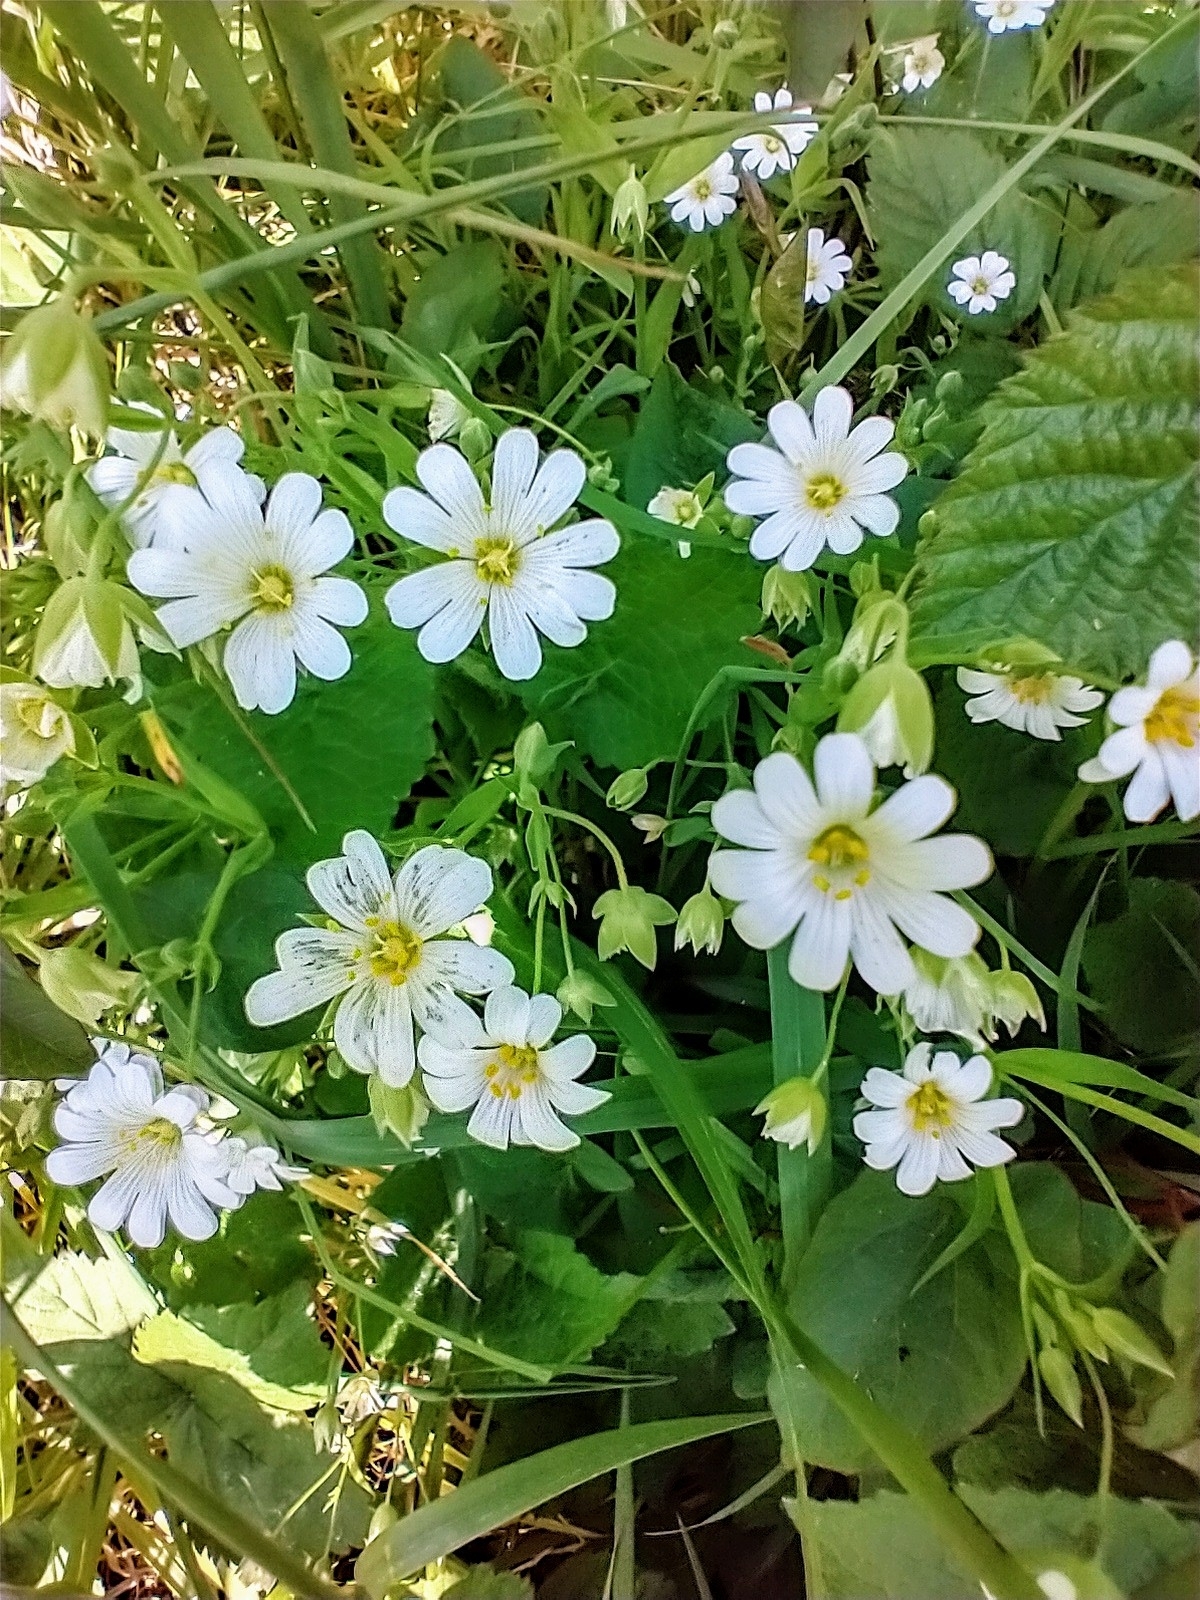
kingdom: Plantae
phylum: Tracheophyta
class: Magnoliopsida
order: Caryophyllales
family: Caryophyllaceae
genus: Rabelera
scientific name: Rabelera holostea
